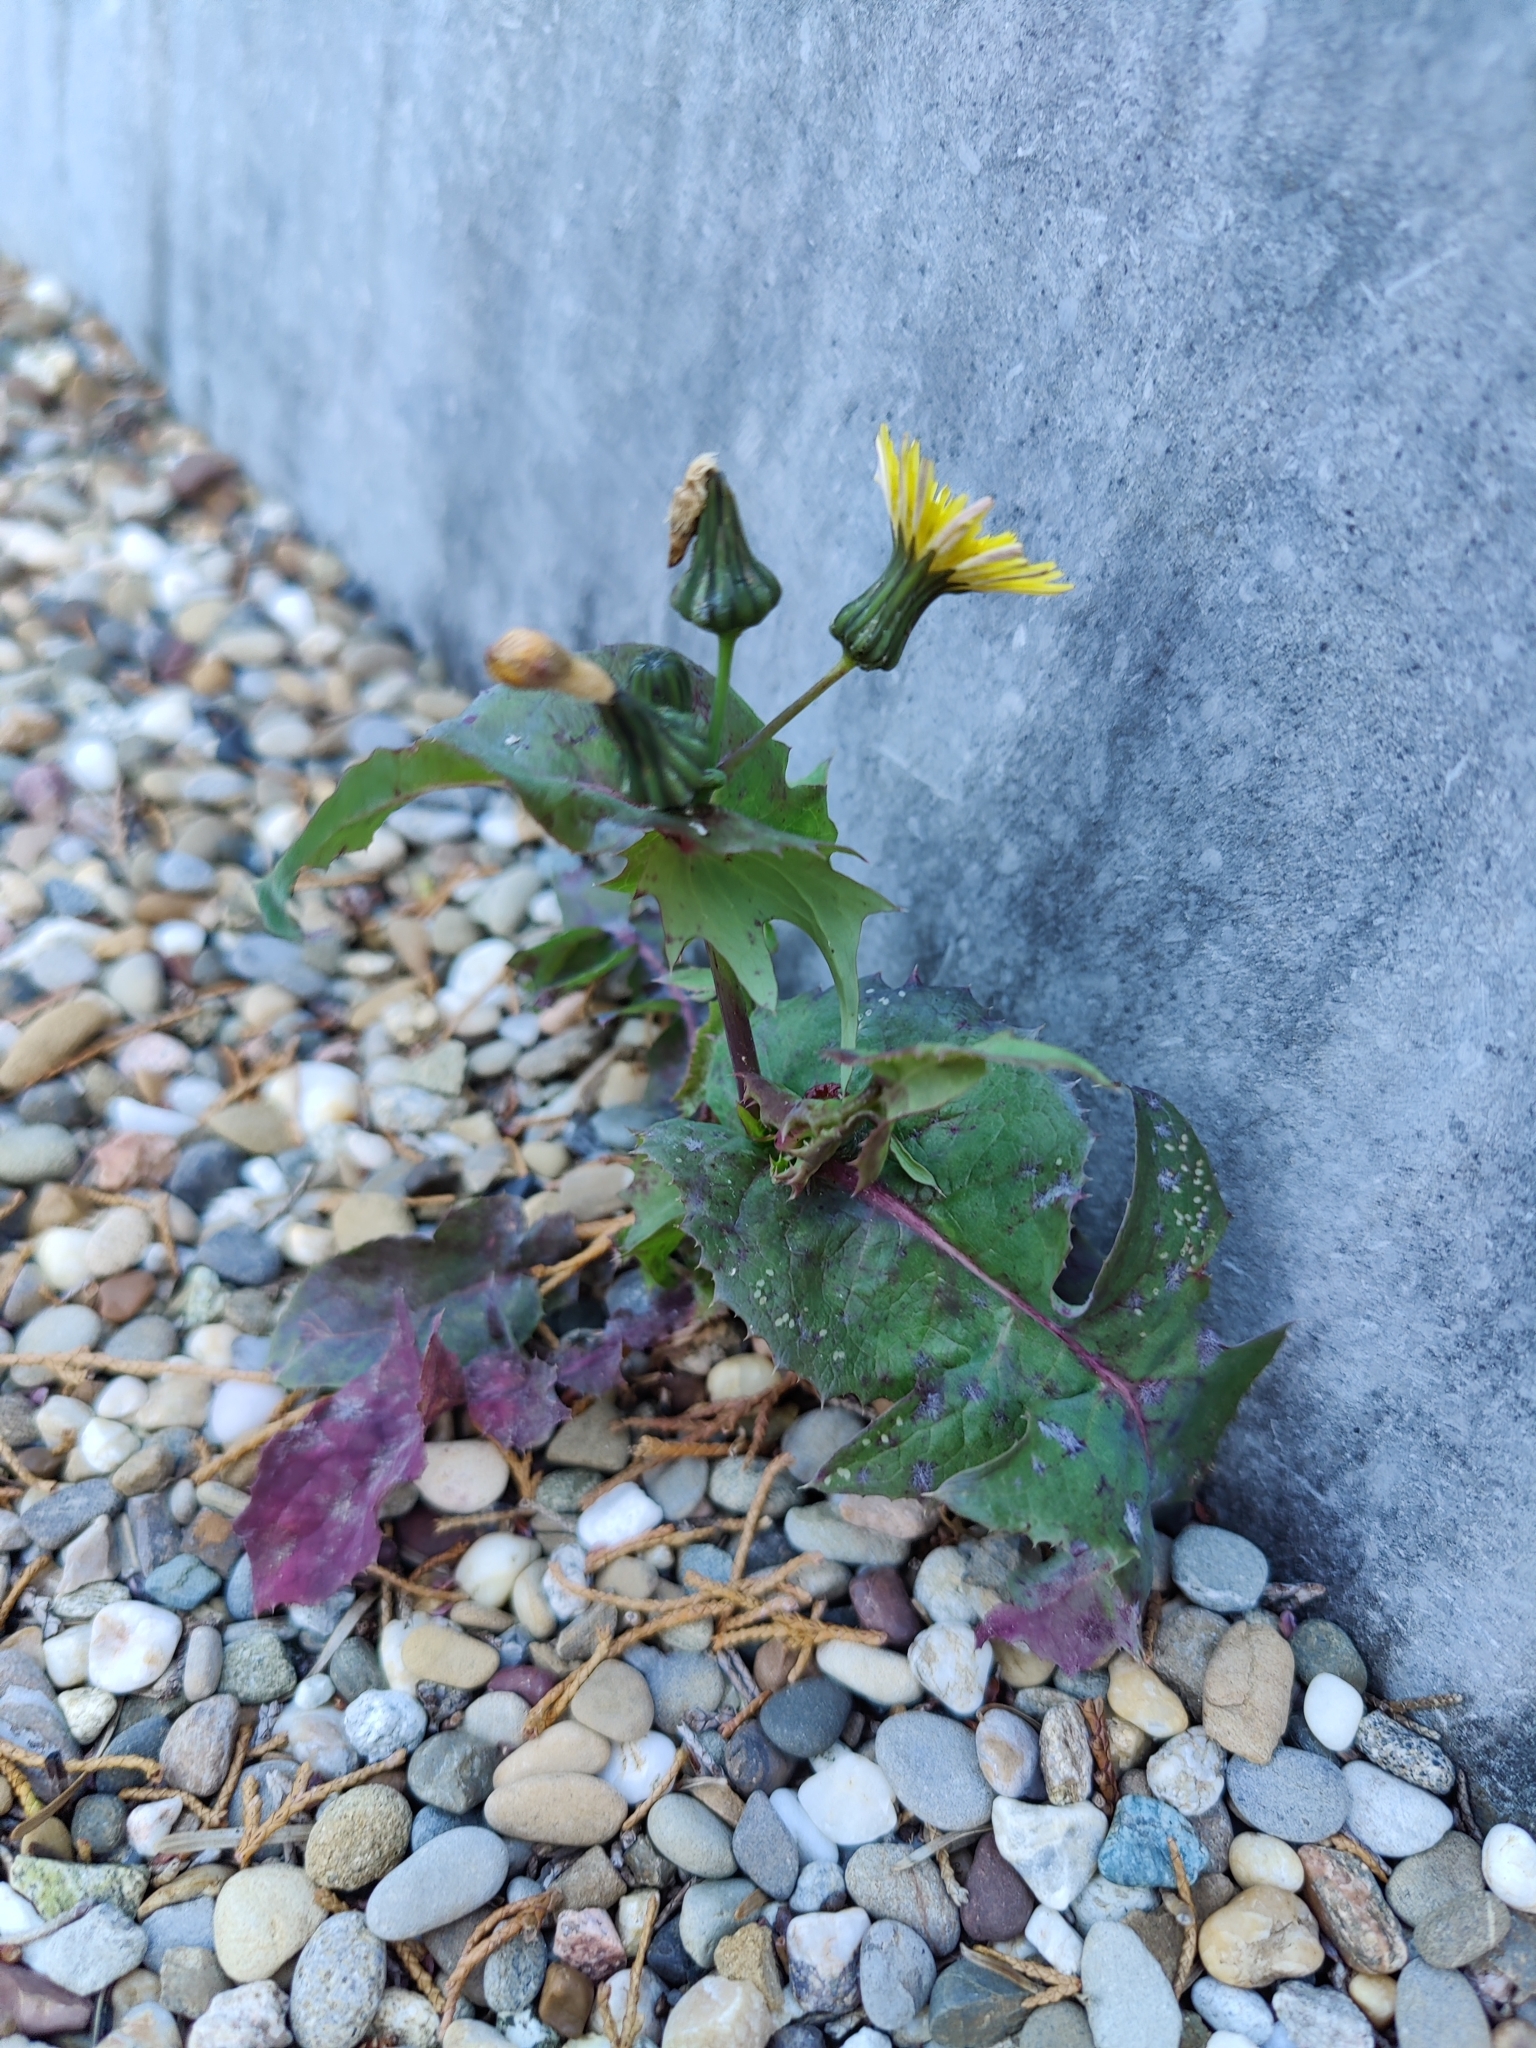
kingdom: Plantae
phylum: Tracheophyta
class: Magnoliopsida
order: Asterales
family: Asteraceae
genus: Sonchus
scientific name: Sonchus oleraceus
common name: Common sowthistle
